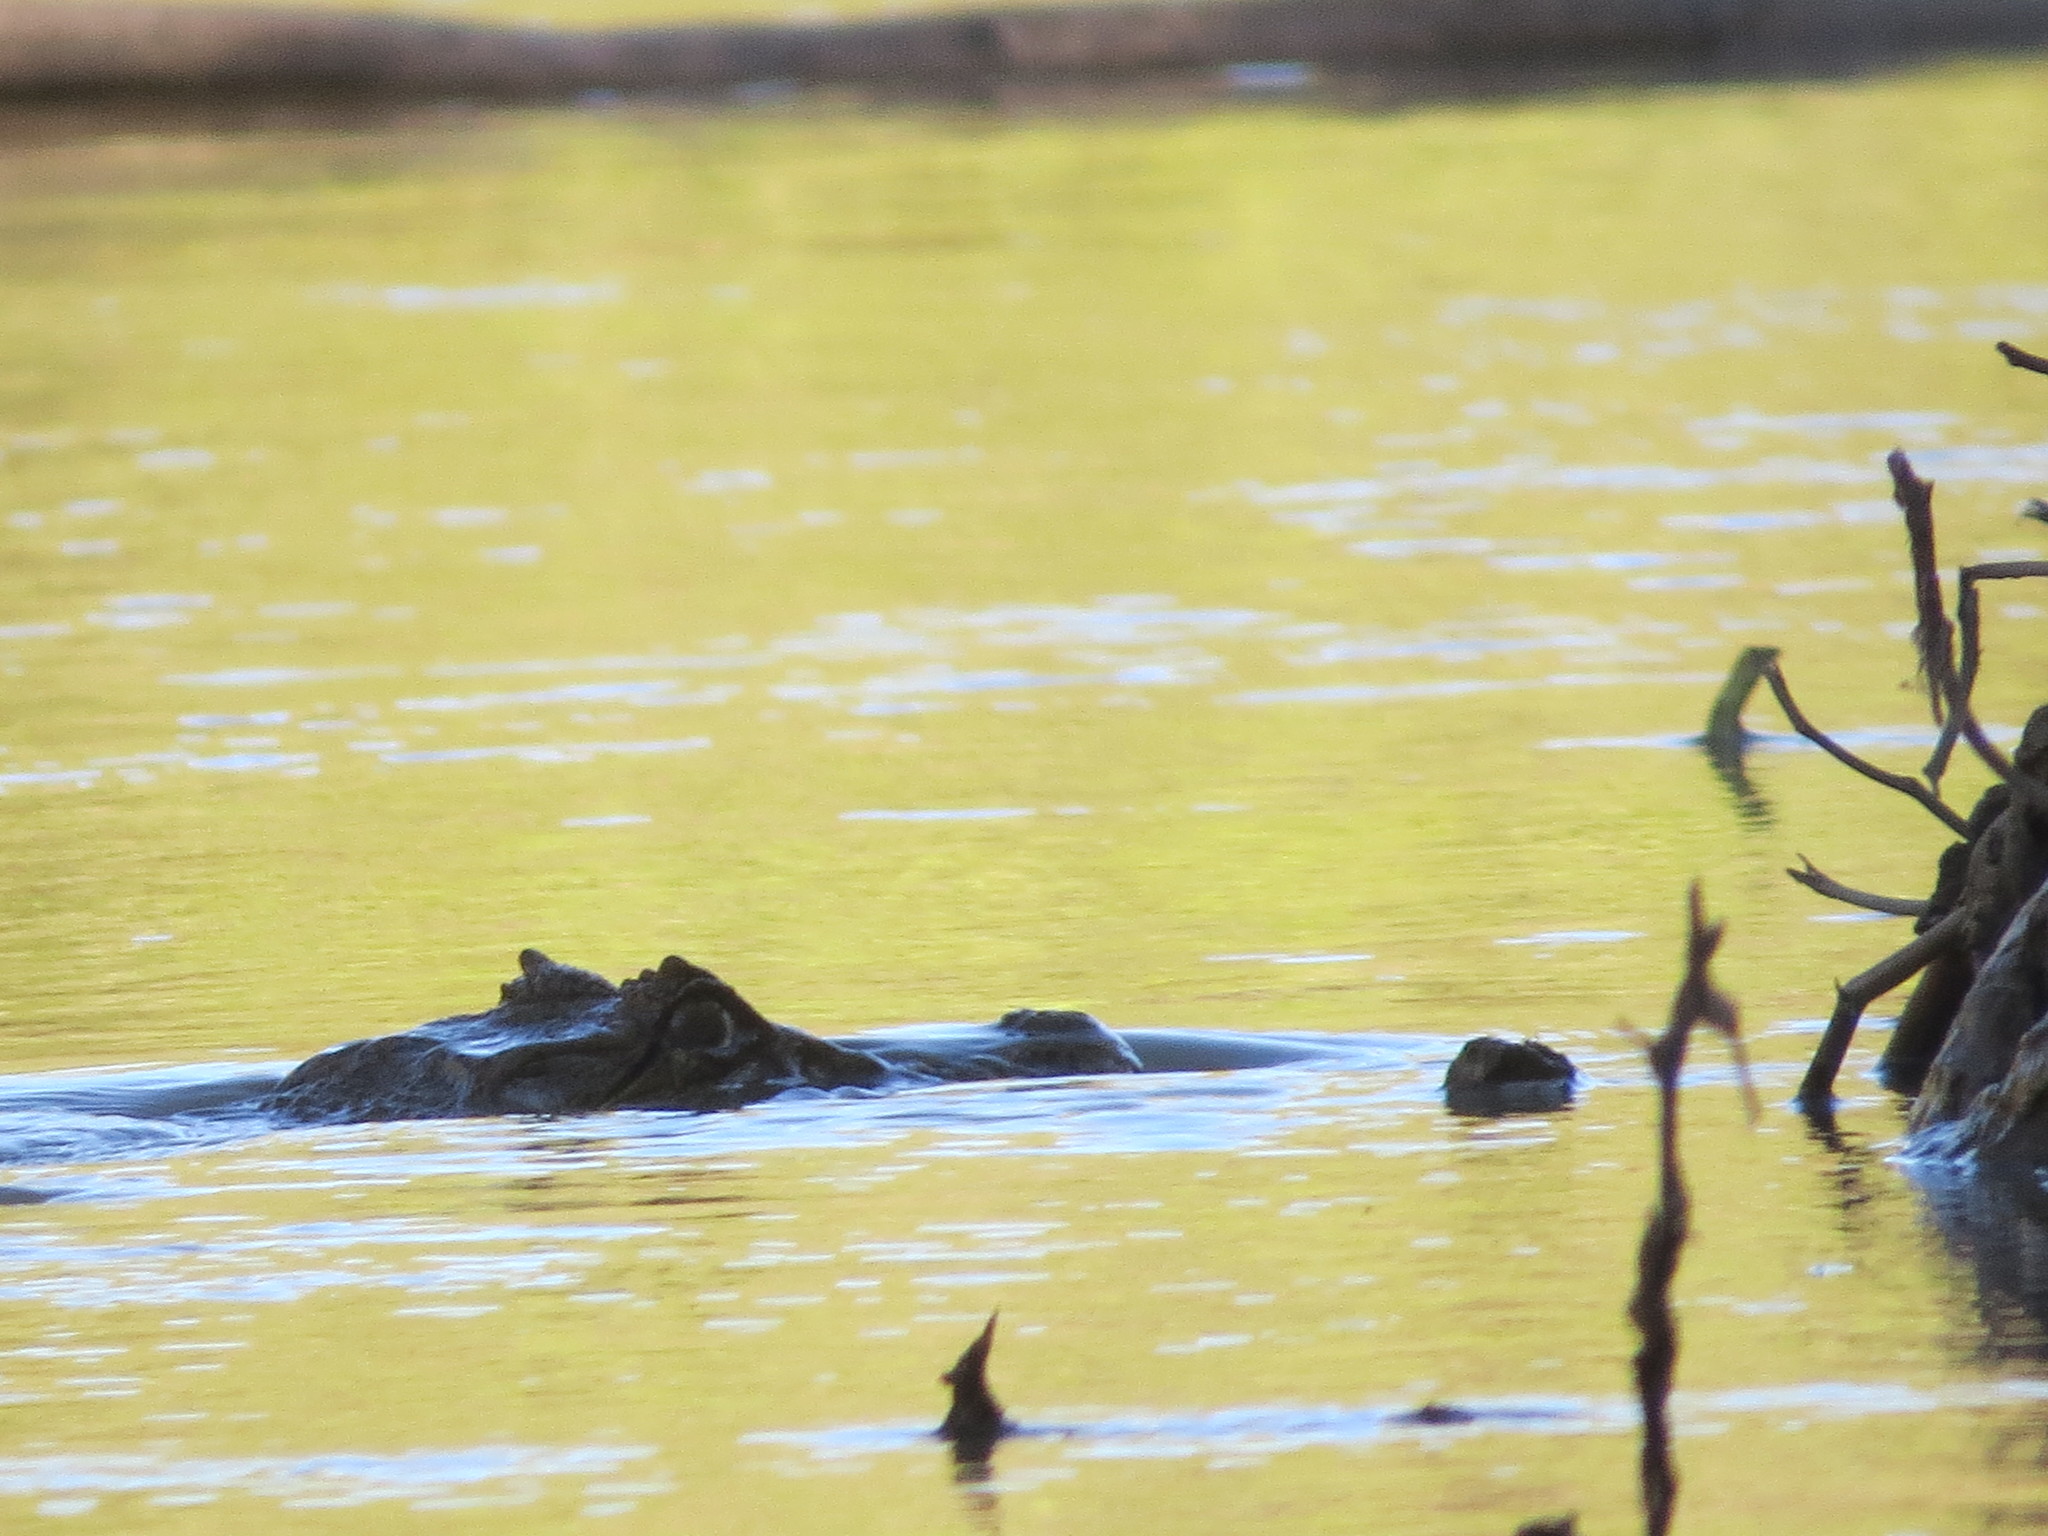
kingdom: Animalia
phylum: Chordata
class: Crocodylia
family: Alligatoridae
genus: Caiman
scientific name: Caiman latirostris
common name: Broad-snouted caiman
